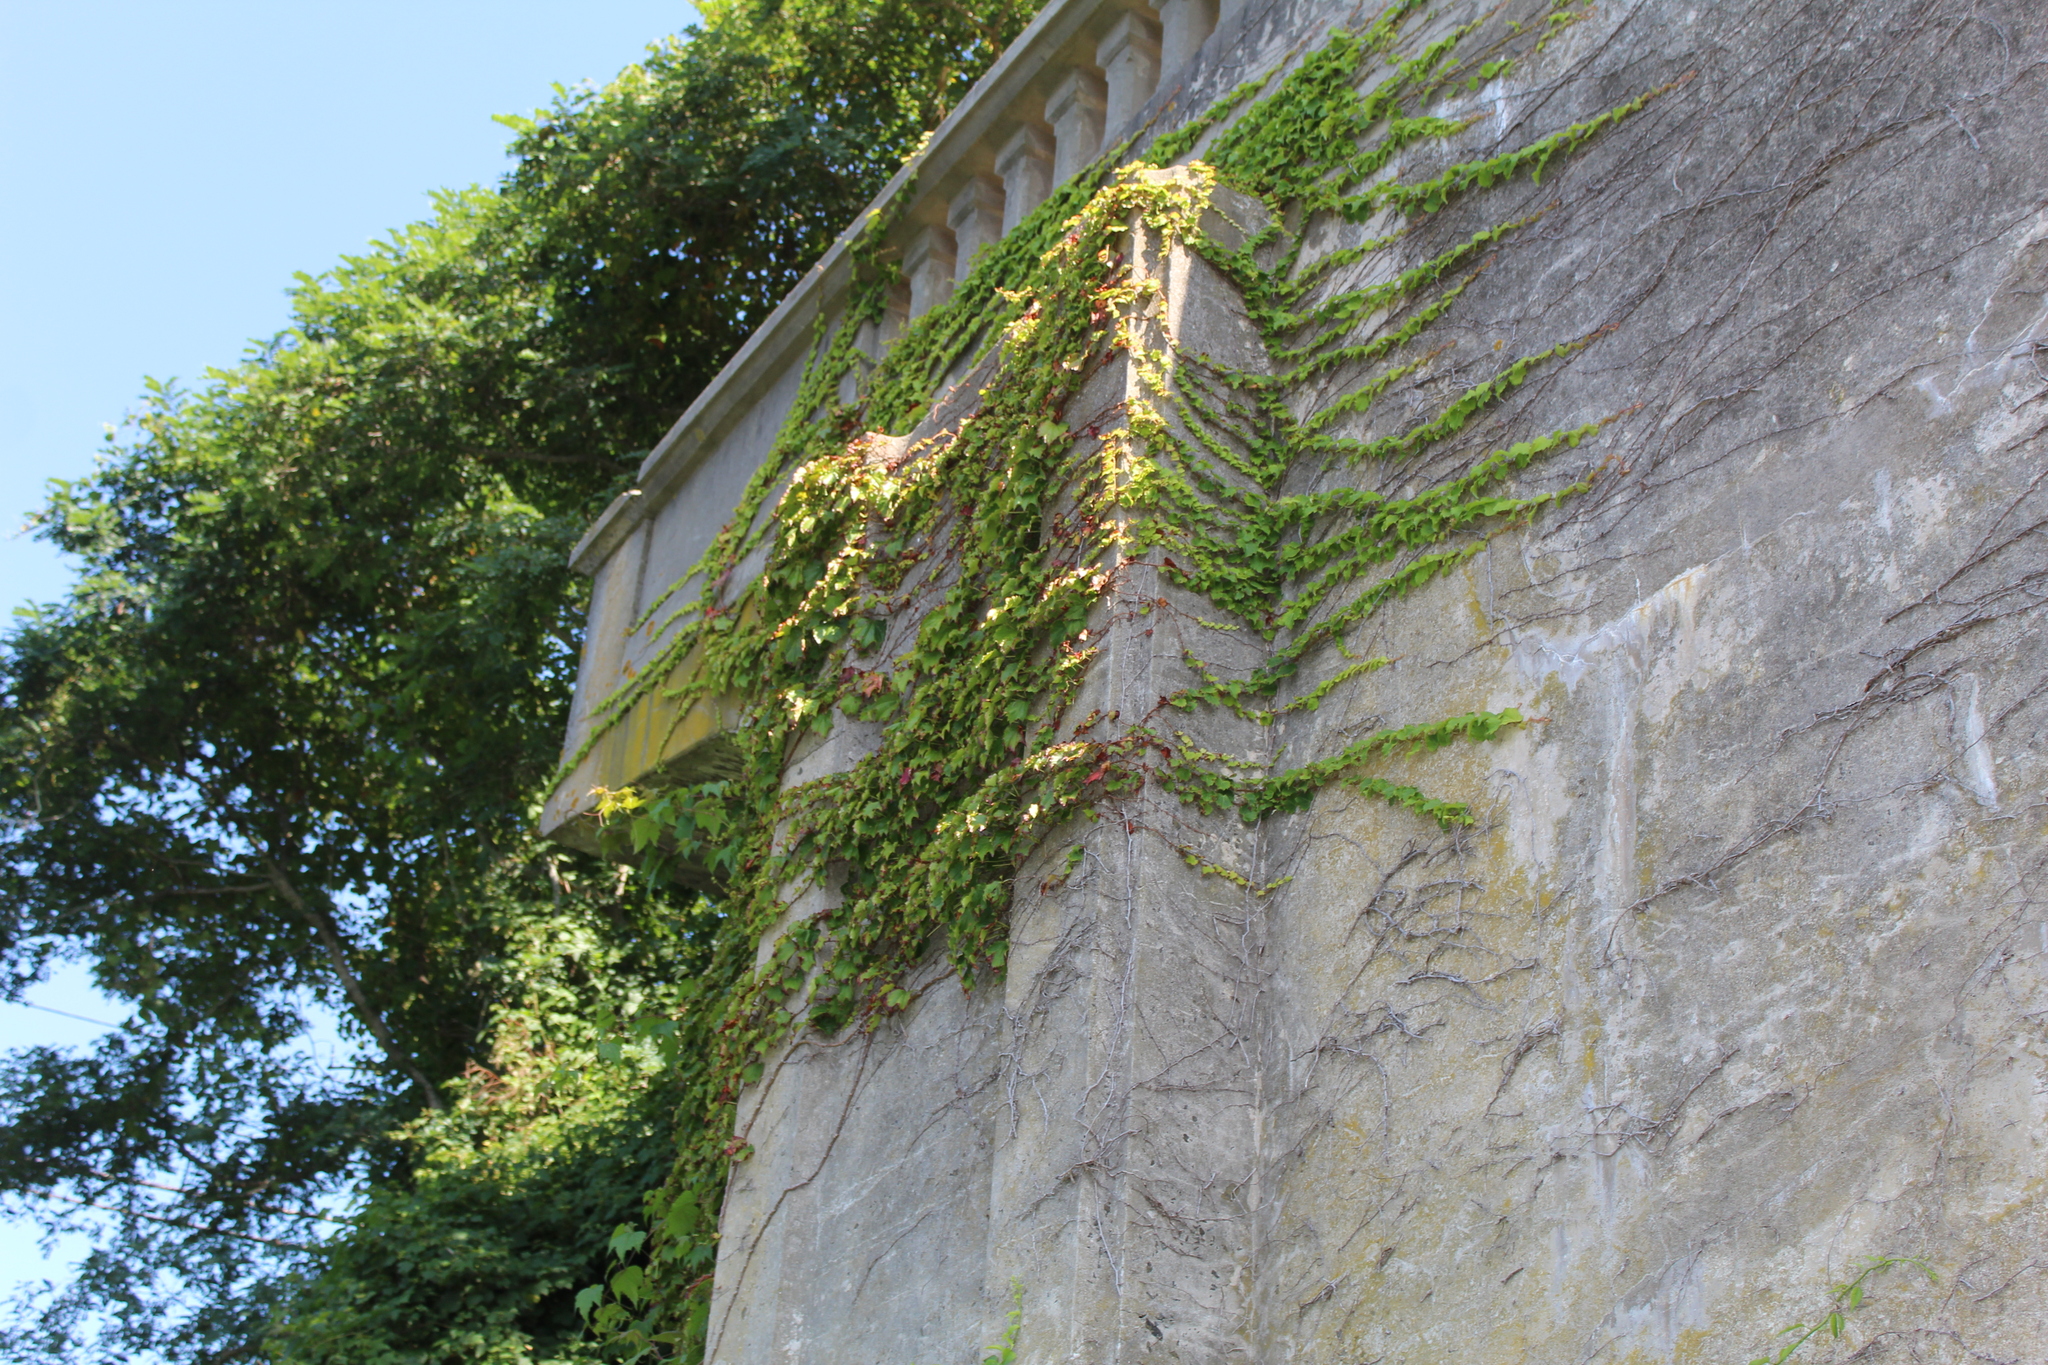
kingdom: Plantae
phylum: Tracheophyta
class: Magnoliopsida
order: Vitales
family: Vitaceae
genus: Parthenocissus
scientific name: Parthenocissus tricuspidata
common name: Boston ivy
